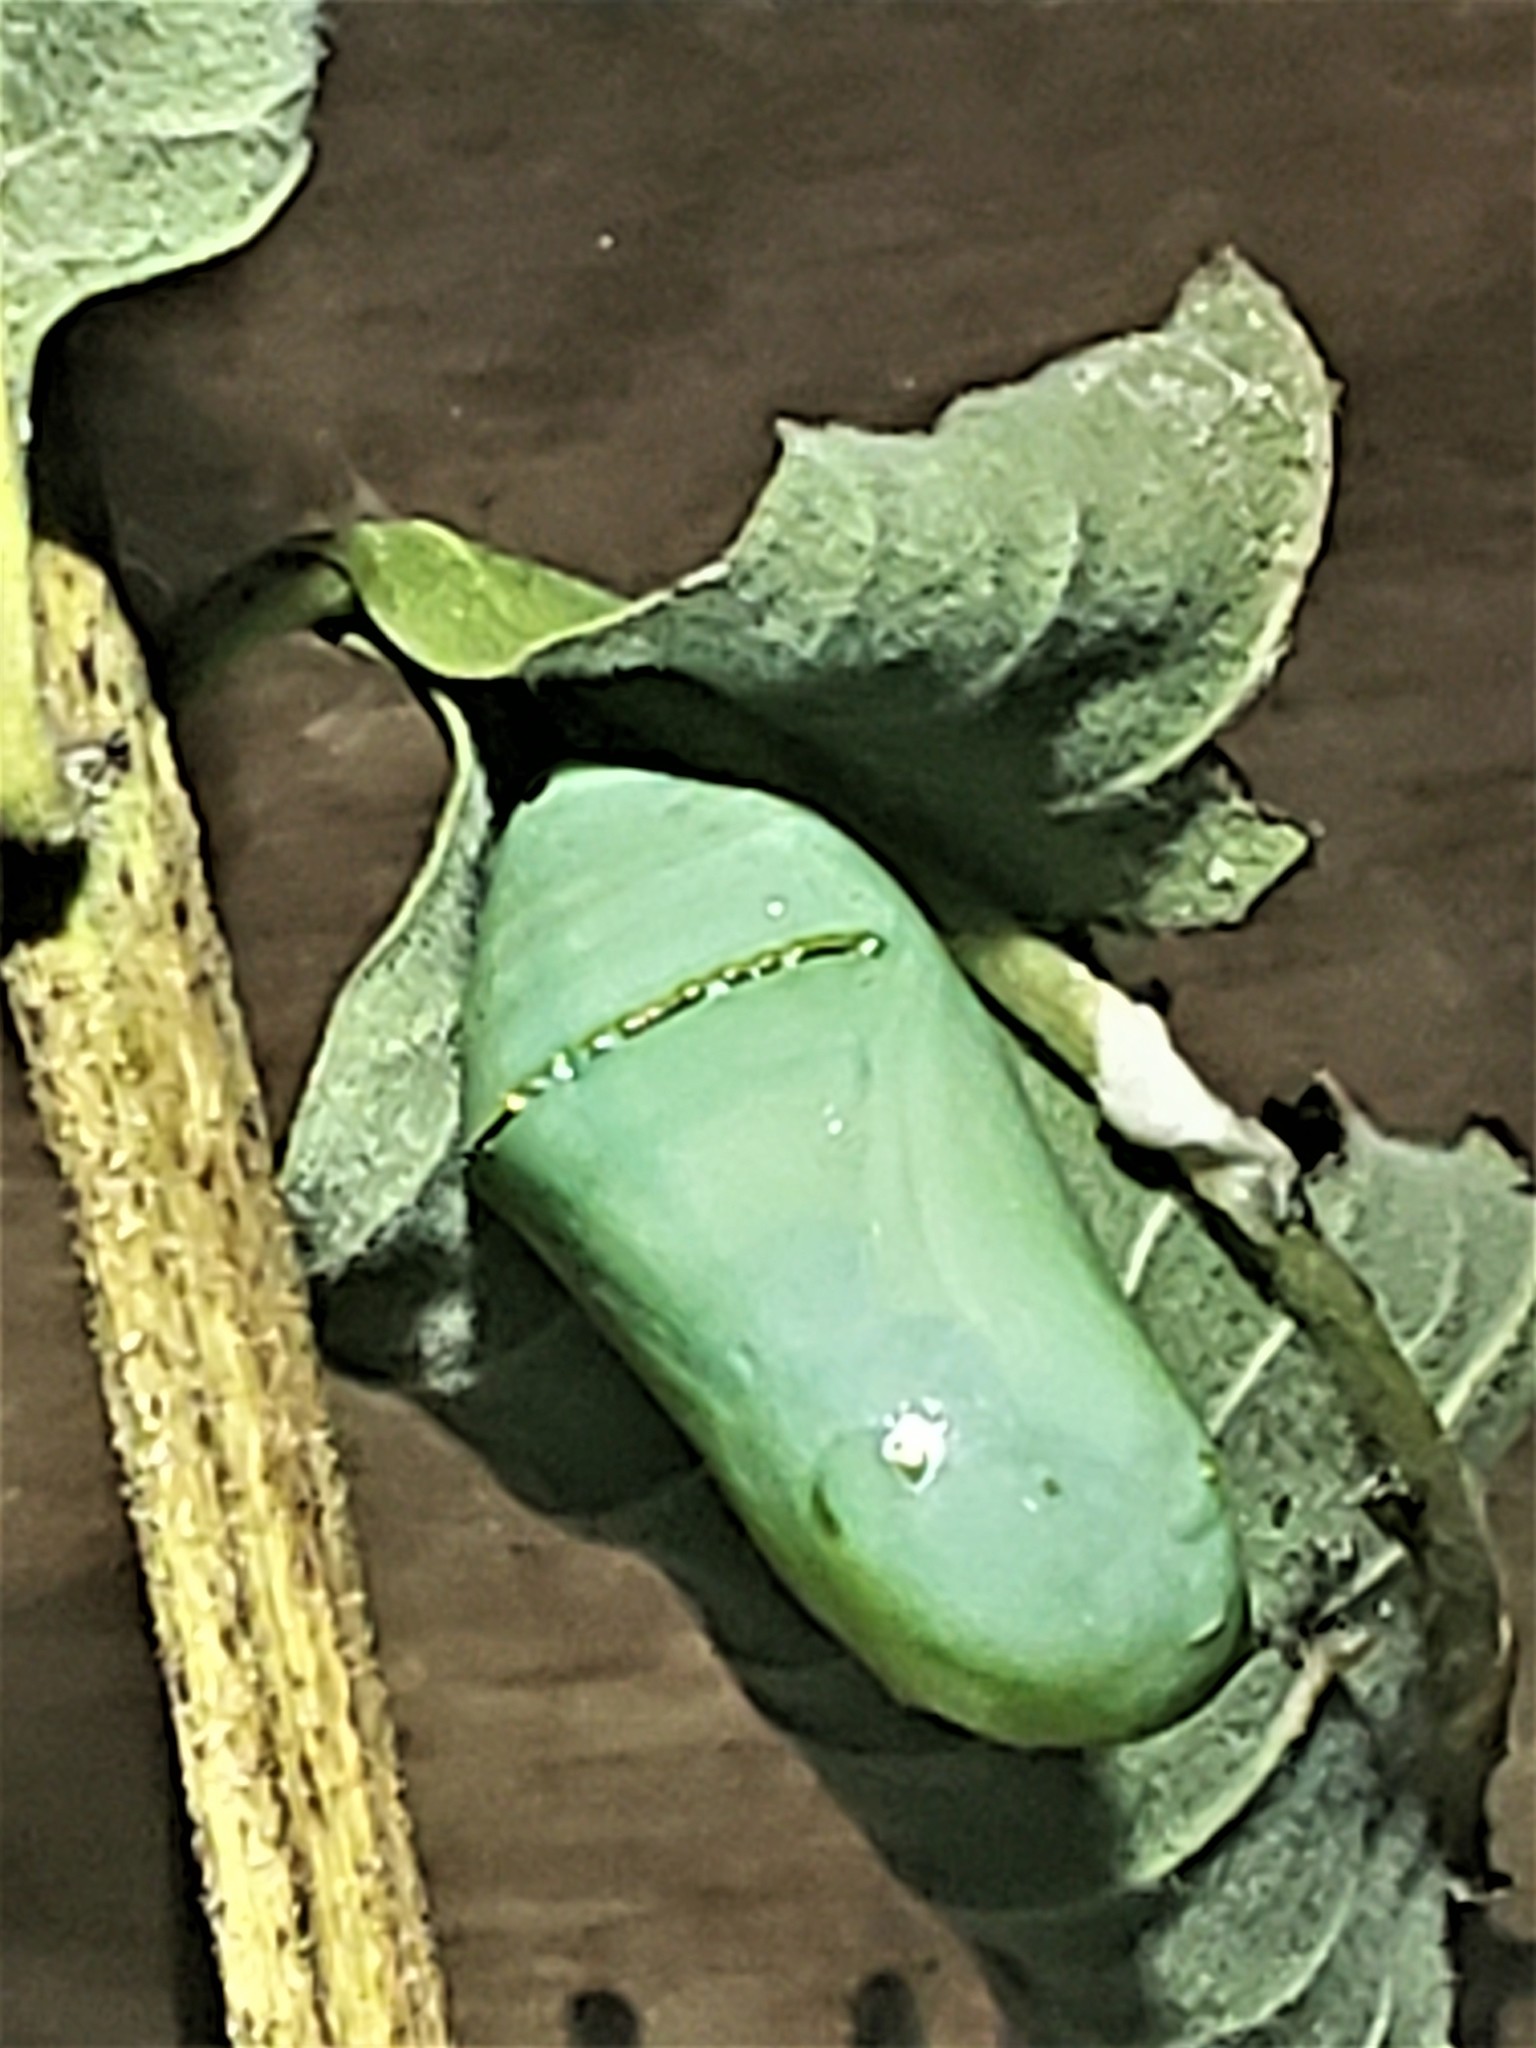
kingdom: Animalia
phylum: Arthropoda
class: Insecta
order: Lepidoptera
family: Nymphalidae
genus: Danaus
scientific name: Danaus plexippus
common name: Monarch
